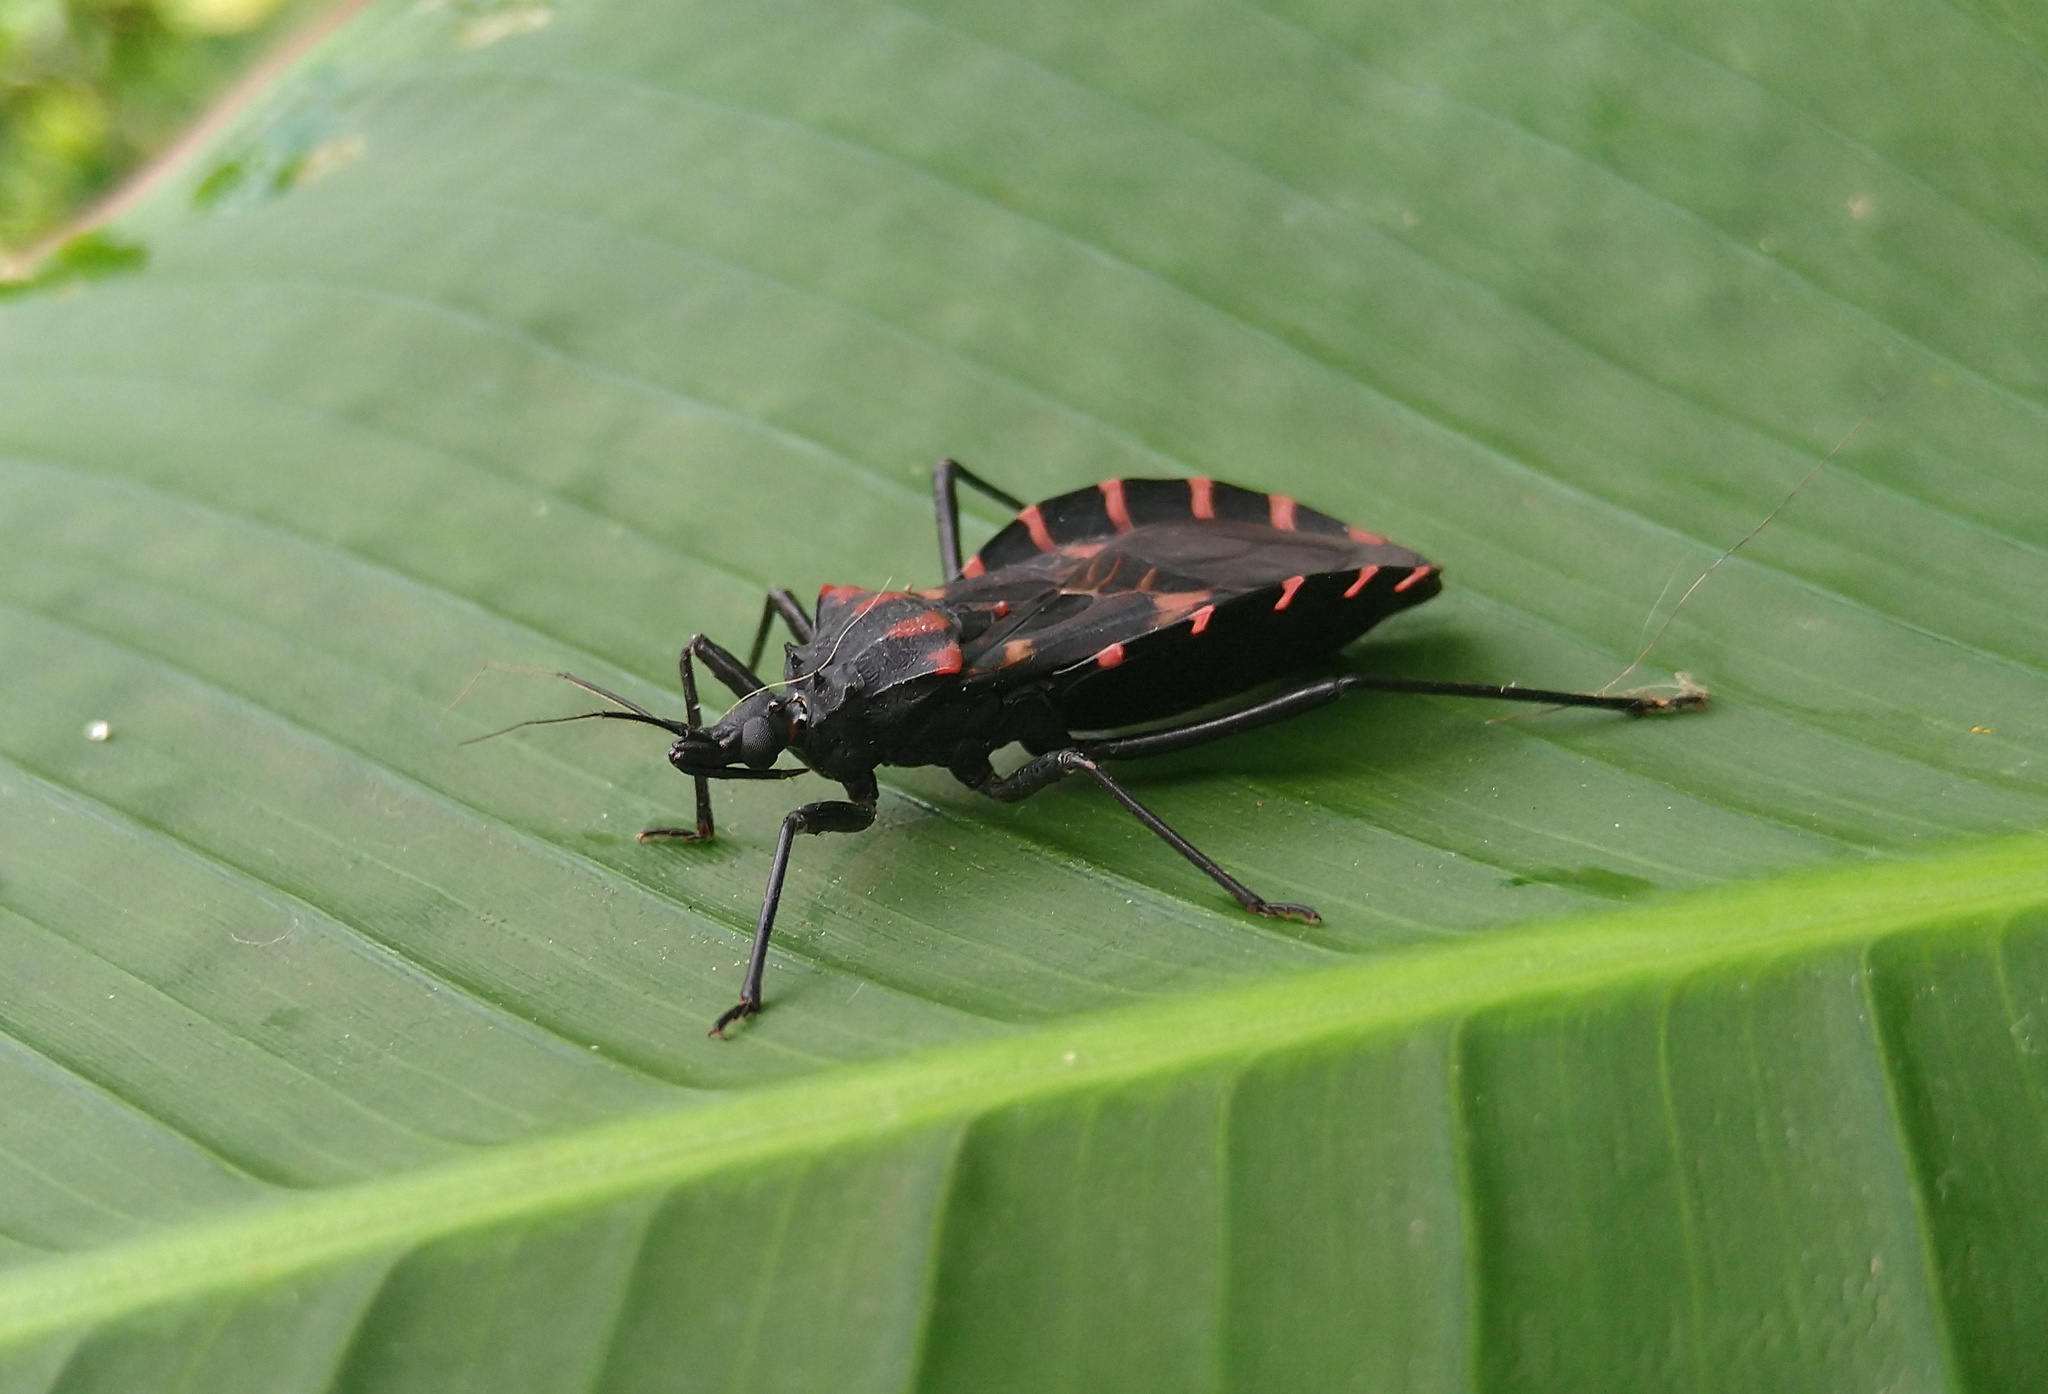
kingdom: Animalia
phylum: Arthropoda
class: Insecta
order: Hemiptera
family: Reduviidae
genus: Panstrongylus
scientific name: Panstrongylus megistus
